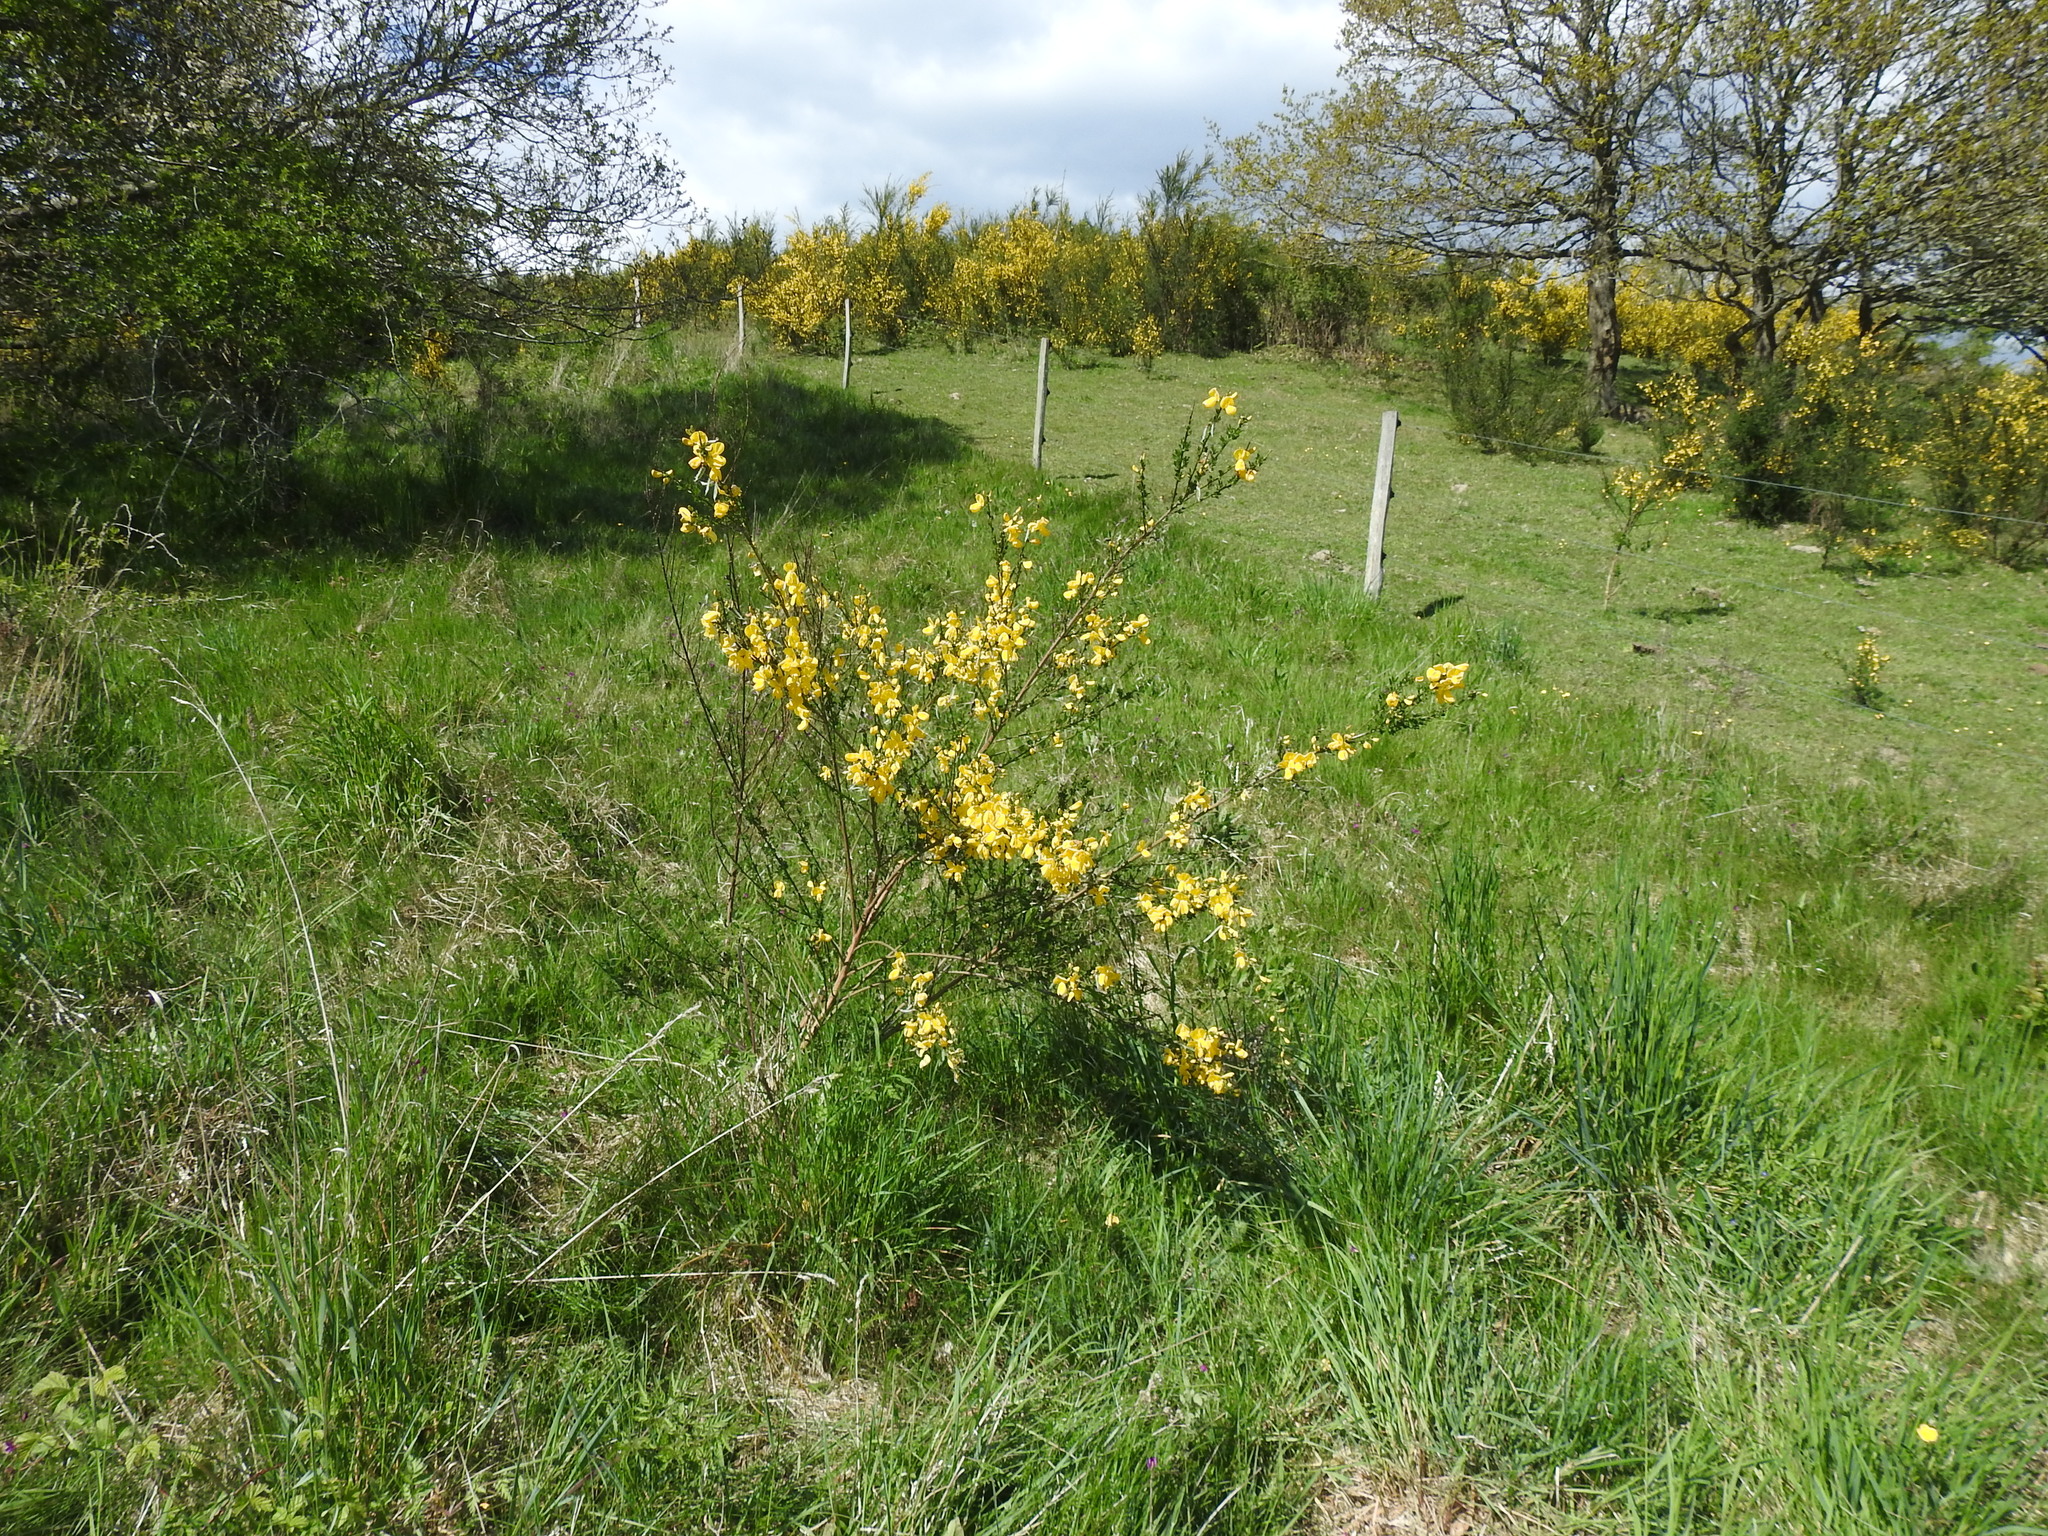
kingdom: Plantae
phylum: Tracheophyta
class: Magnoliopsida
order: Fabales
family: Fabaceae
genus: Cytisus
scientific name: Cytisus scoparius
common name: Scotch broom
